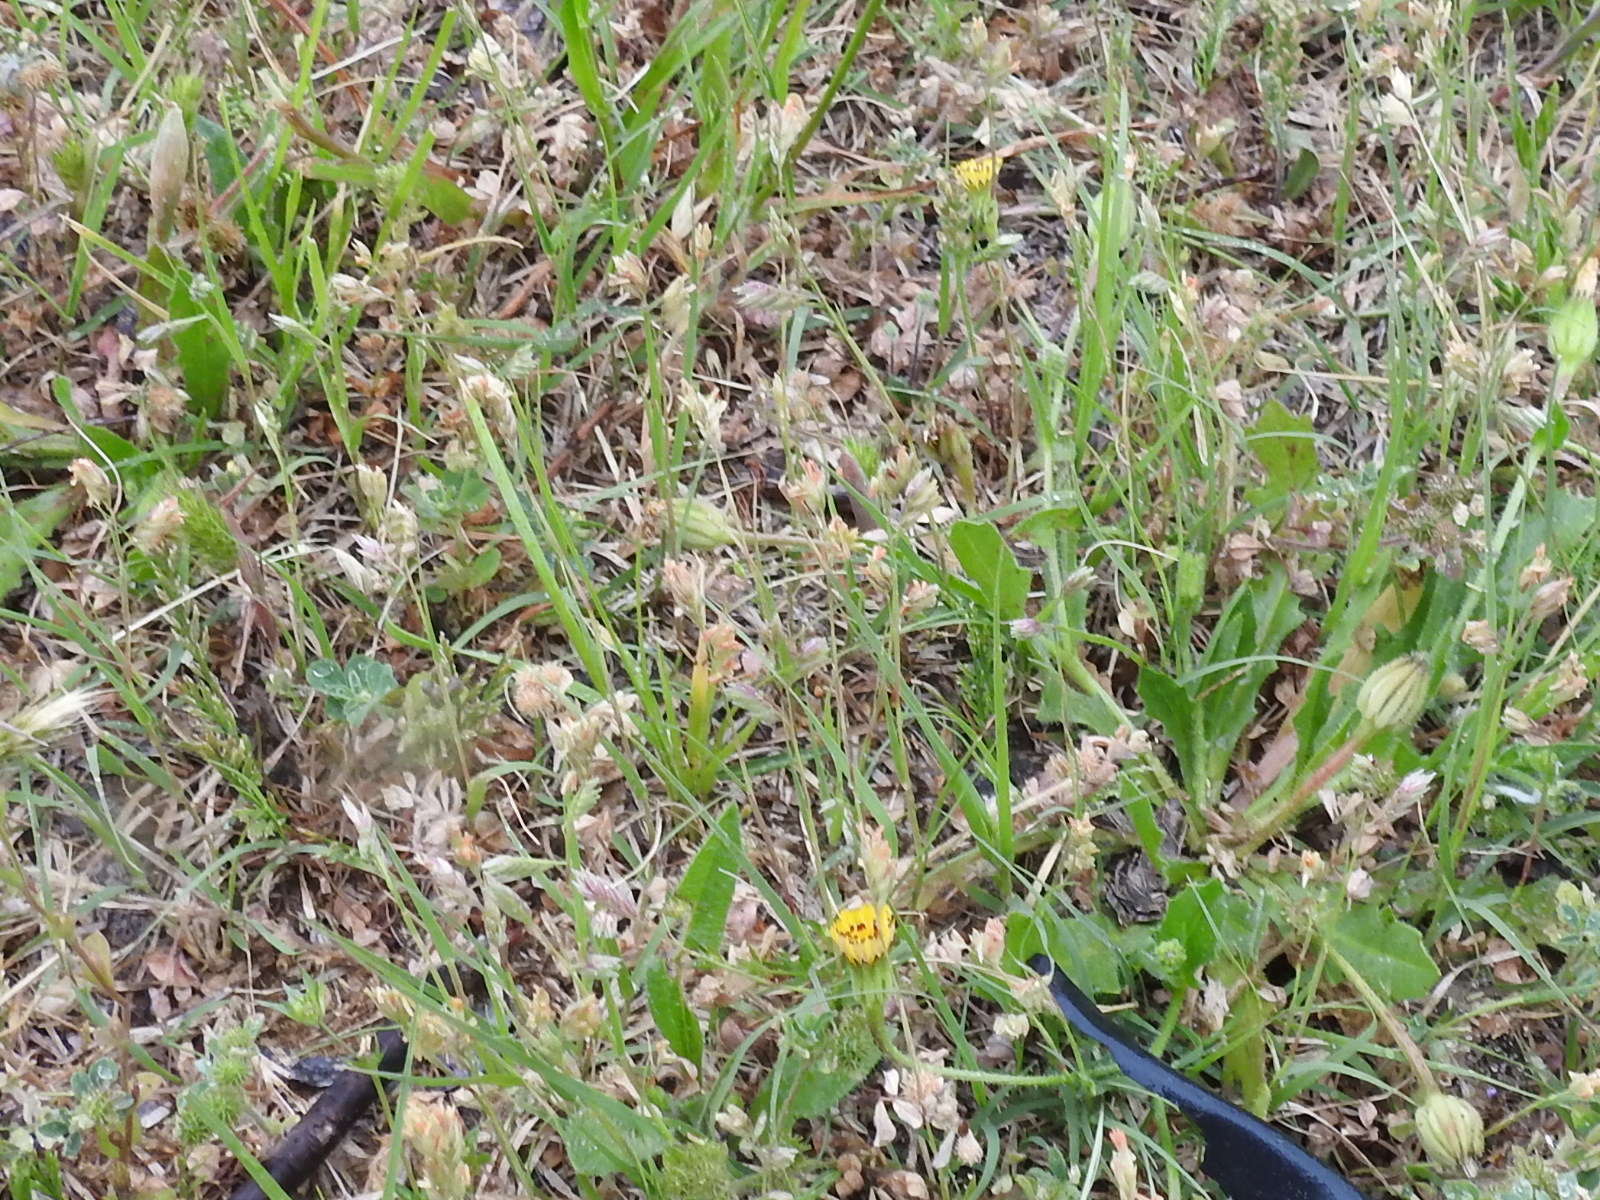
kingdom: Plantae
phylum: Tracheophyta
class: Liliopsida
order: Poales
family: Poaceae
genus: Bouteloua
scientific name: Bouteloua dactyloides
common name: Buffalo grass
